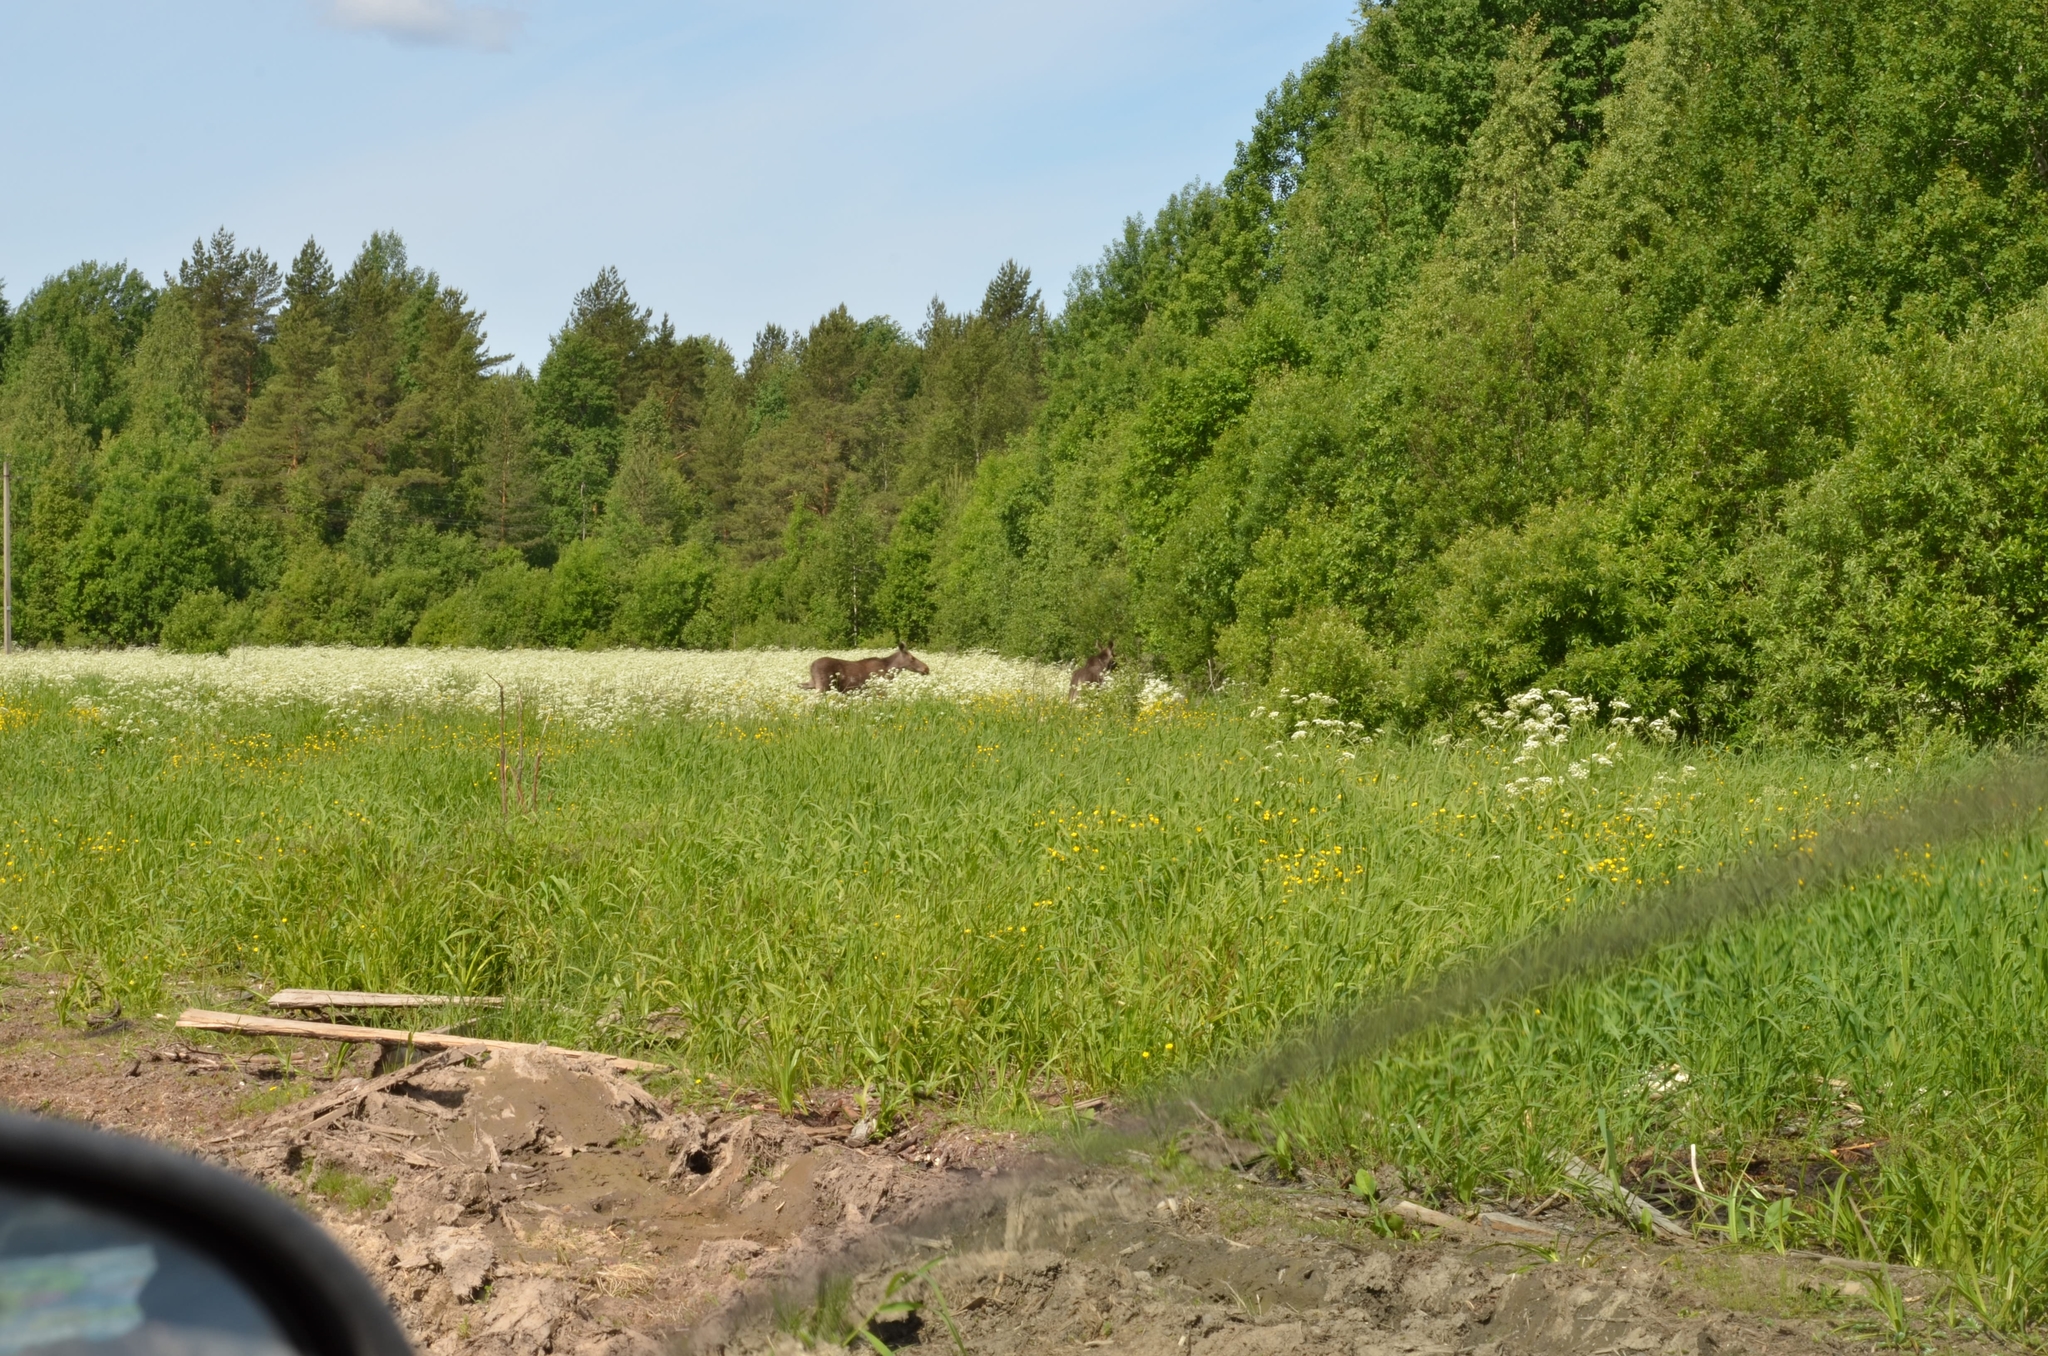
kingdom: Animalia
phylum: Chordata
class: Mammalia
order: Artiodactyla
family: Cervidae
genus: Alces
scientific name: Alces alces
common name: Moose
